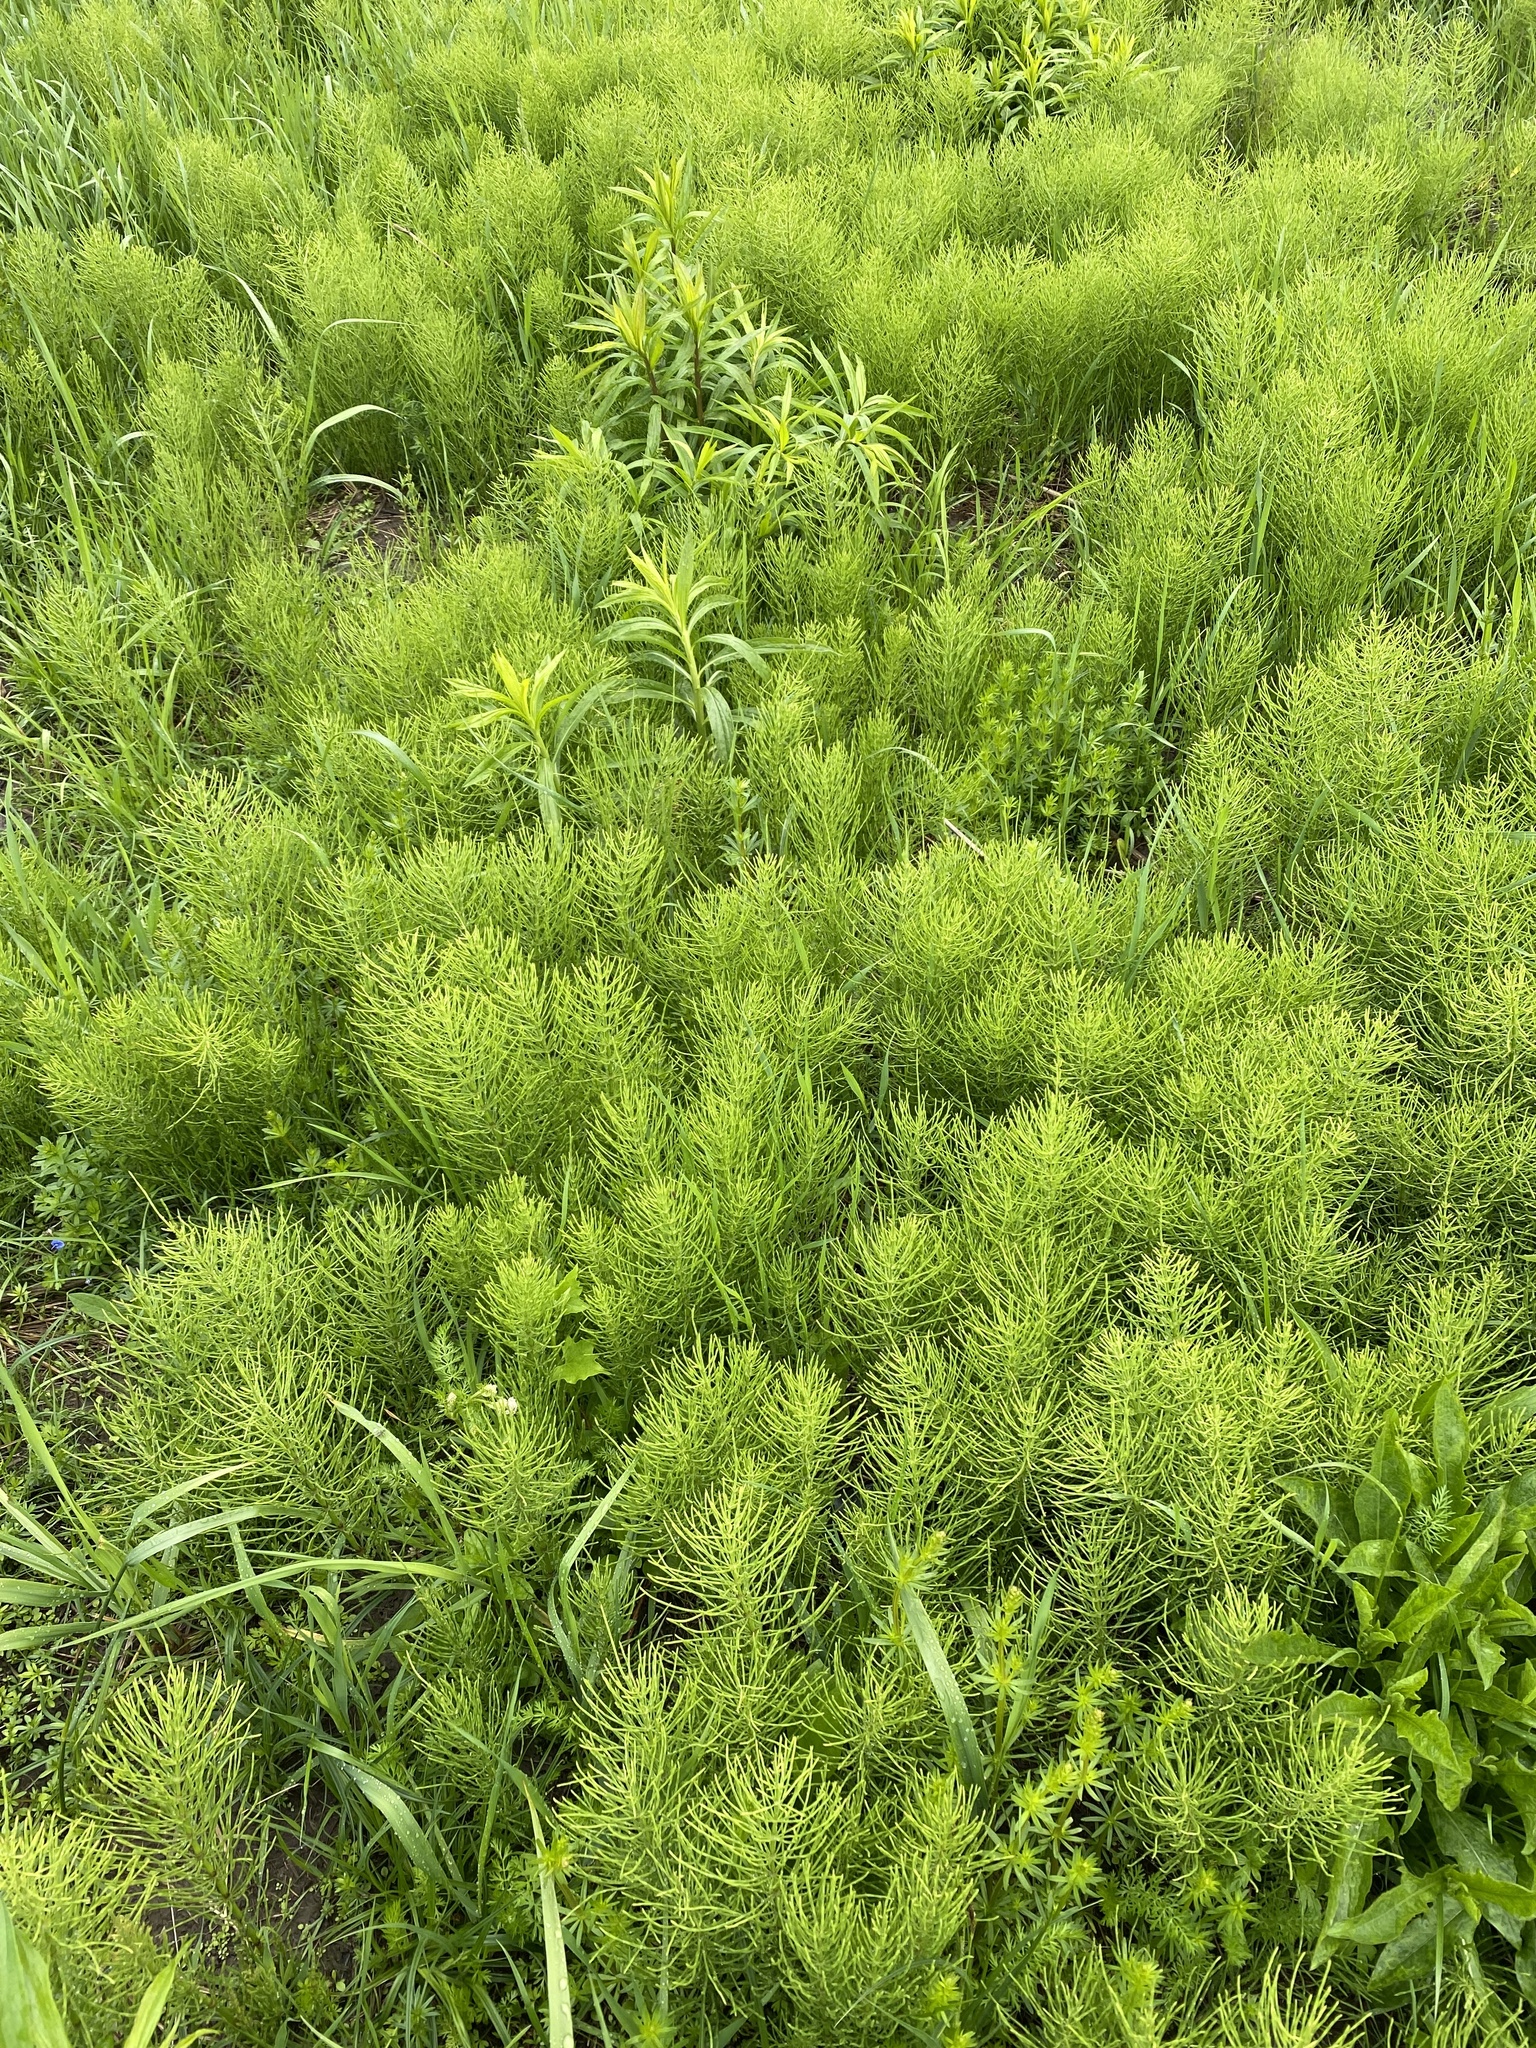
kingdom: Plantae
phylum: Tracheophyta
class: Polypodiopsida
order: Equisetales
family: Equisetaceae
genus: Equisetum
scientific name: Equisetum arvense
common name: Field horsetail
